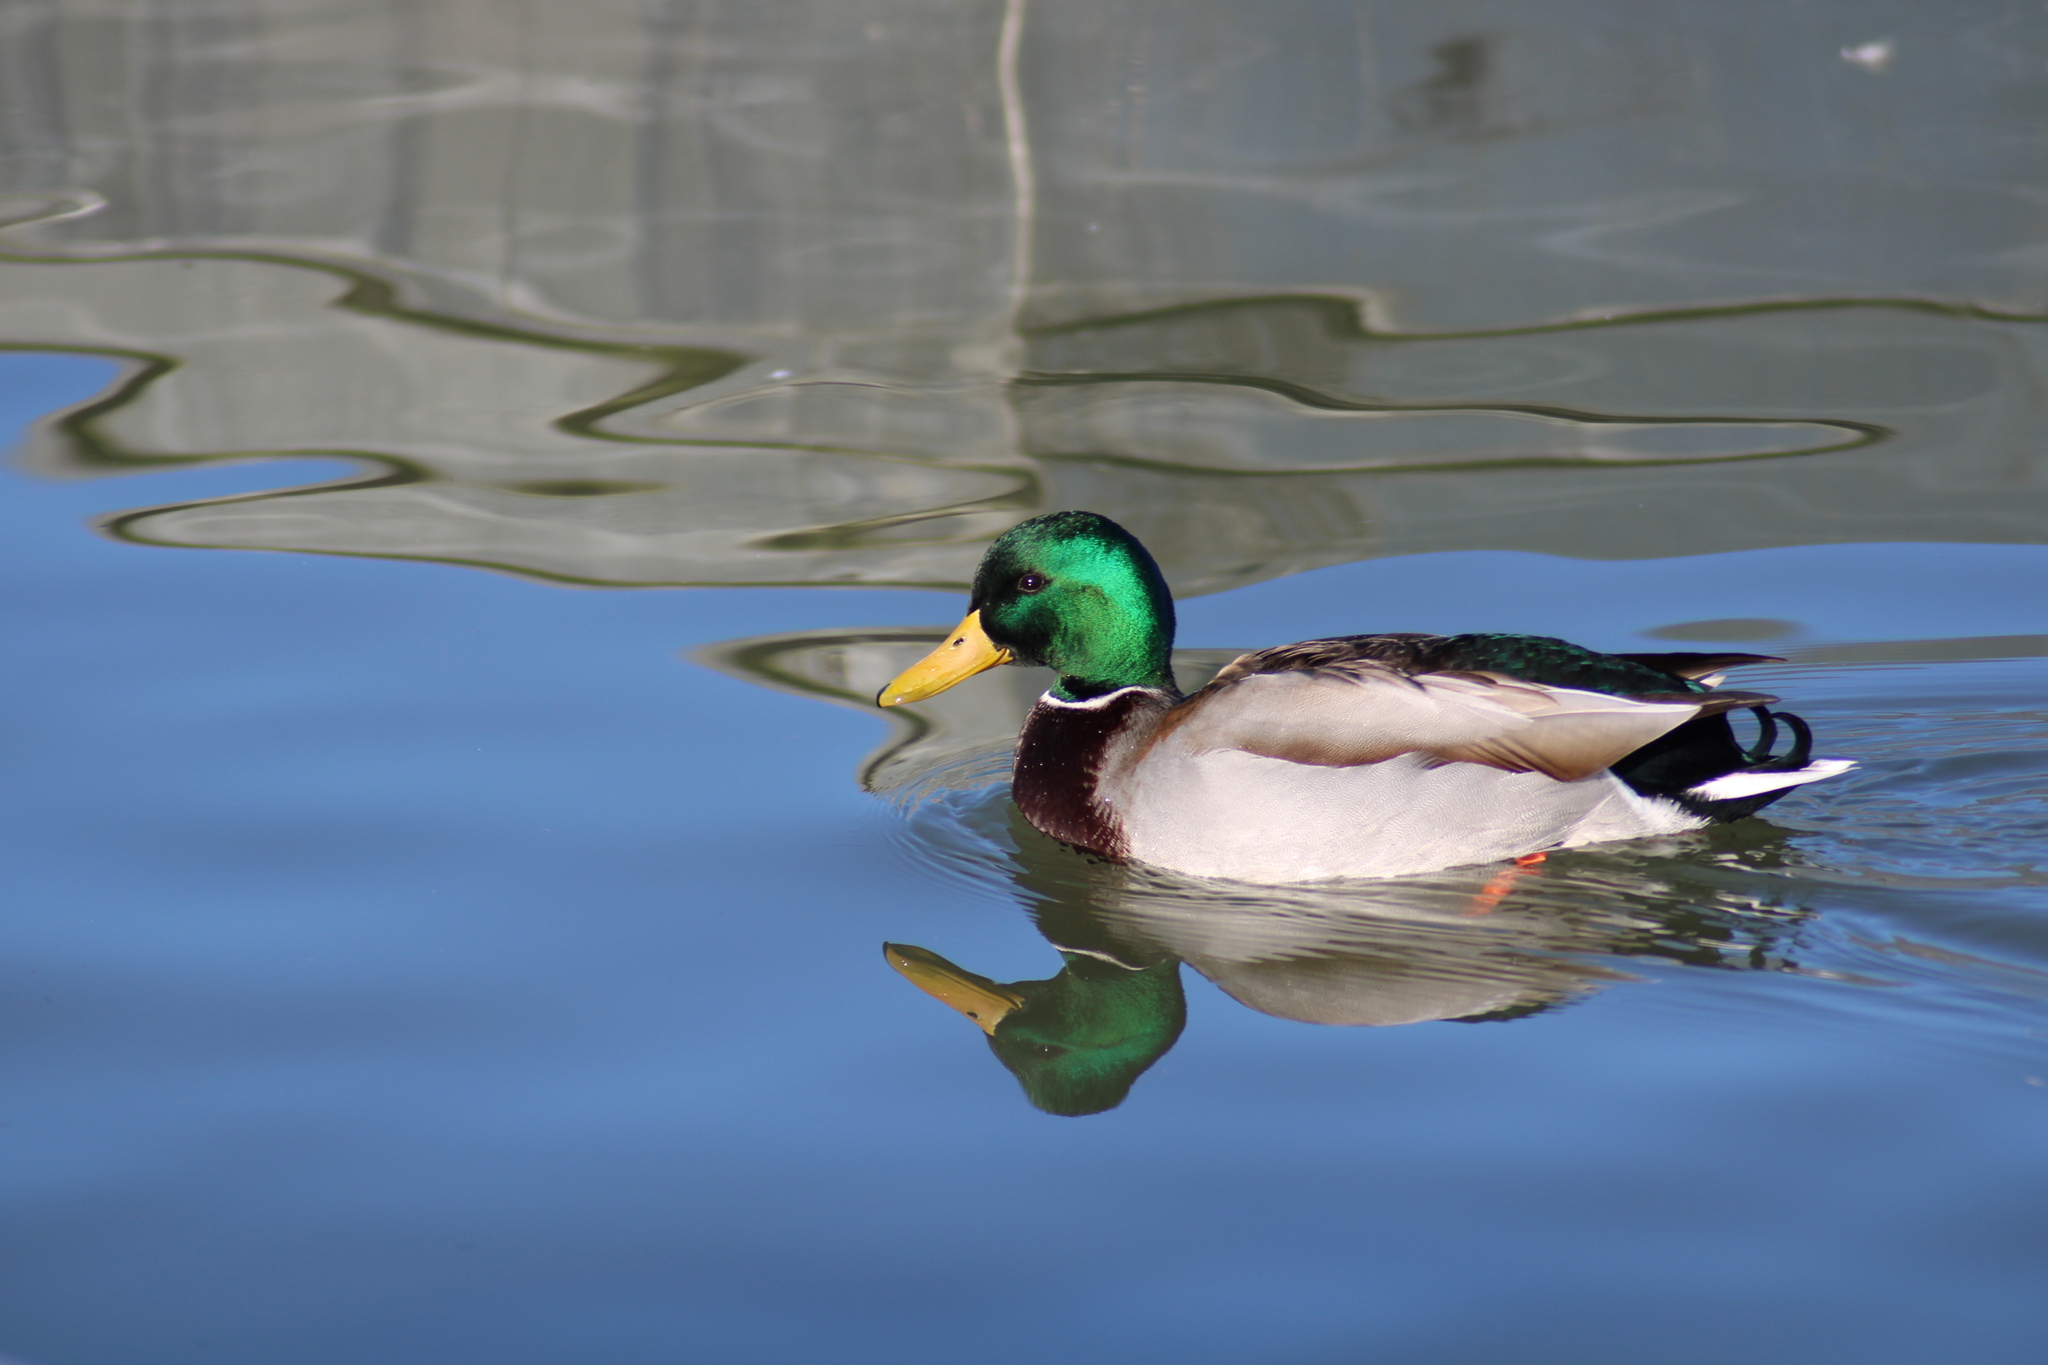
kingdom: Animalia
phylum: Chordata
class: Aves
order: Anseriformes
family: Anatidae
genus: Anas
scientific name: Anas platyrhynchos
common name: Mallard
